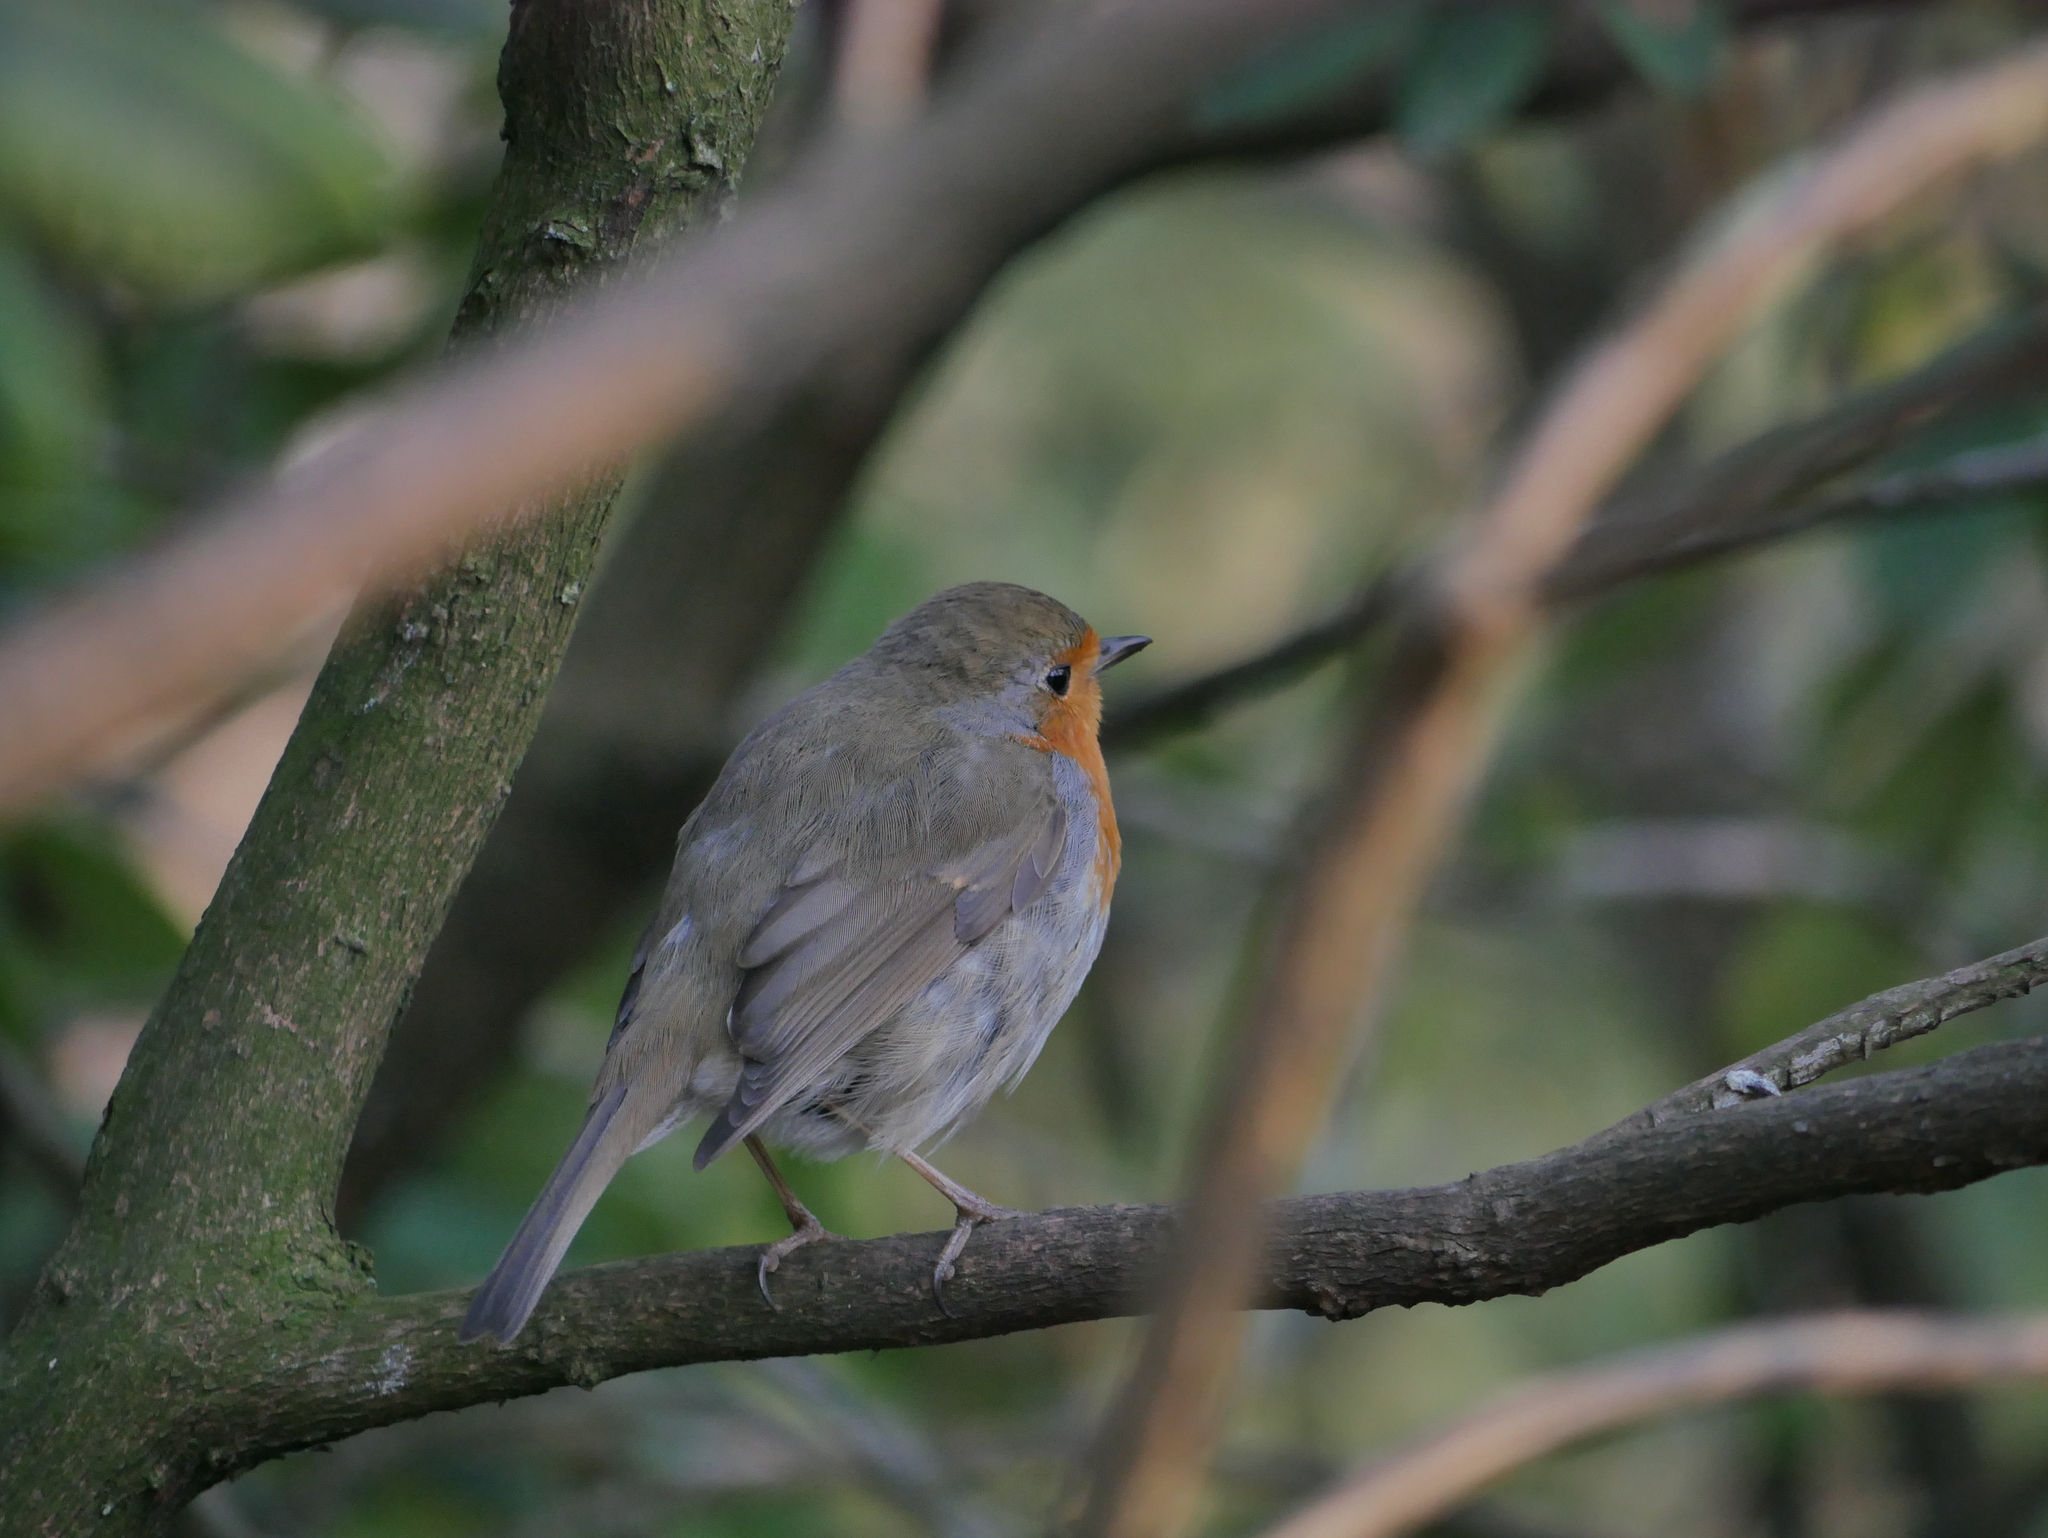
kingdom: Animalia
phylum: Chordata
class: Aves
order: Passeriformes
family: Muscicapidae
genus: Erithacus
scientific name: Erithacus rubecula
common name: European robin
